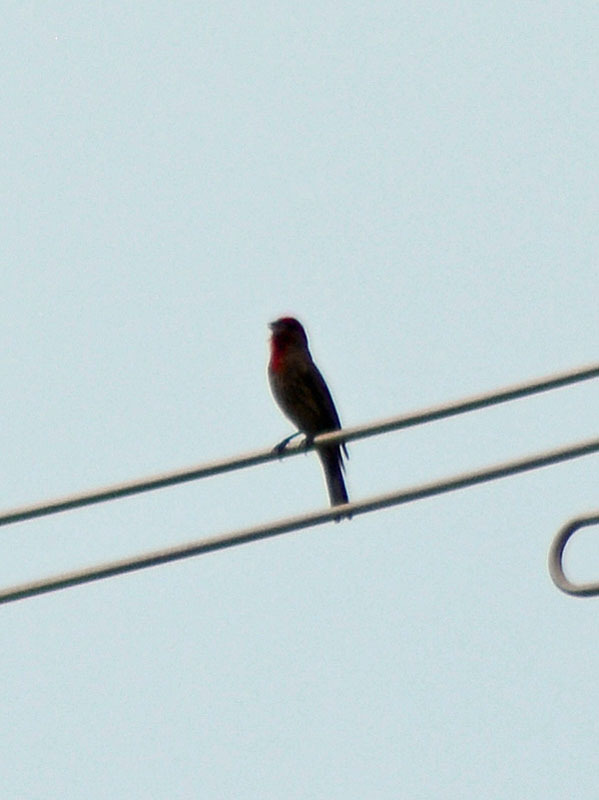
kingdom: Animalia
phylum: Chordata
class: Aves
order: Passeriformes
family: Fringillidae
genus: Haemorhous
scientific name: Haemorhous mexicanus
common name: House finch
